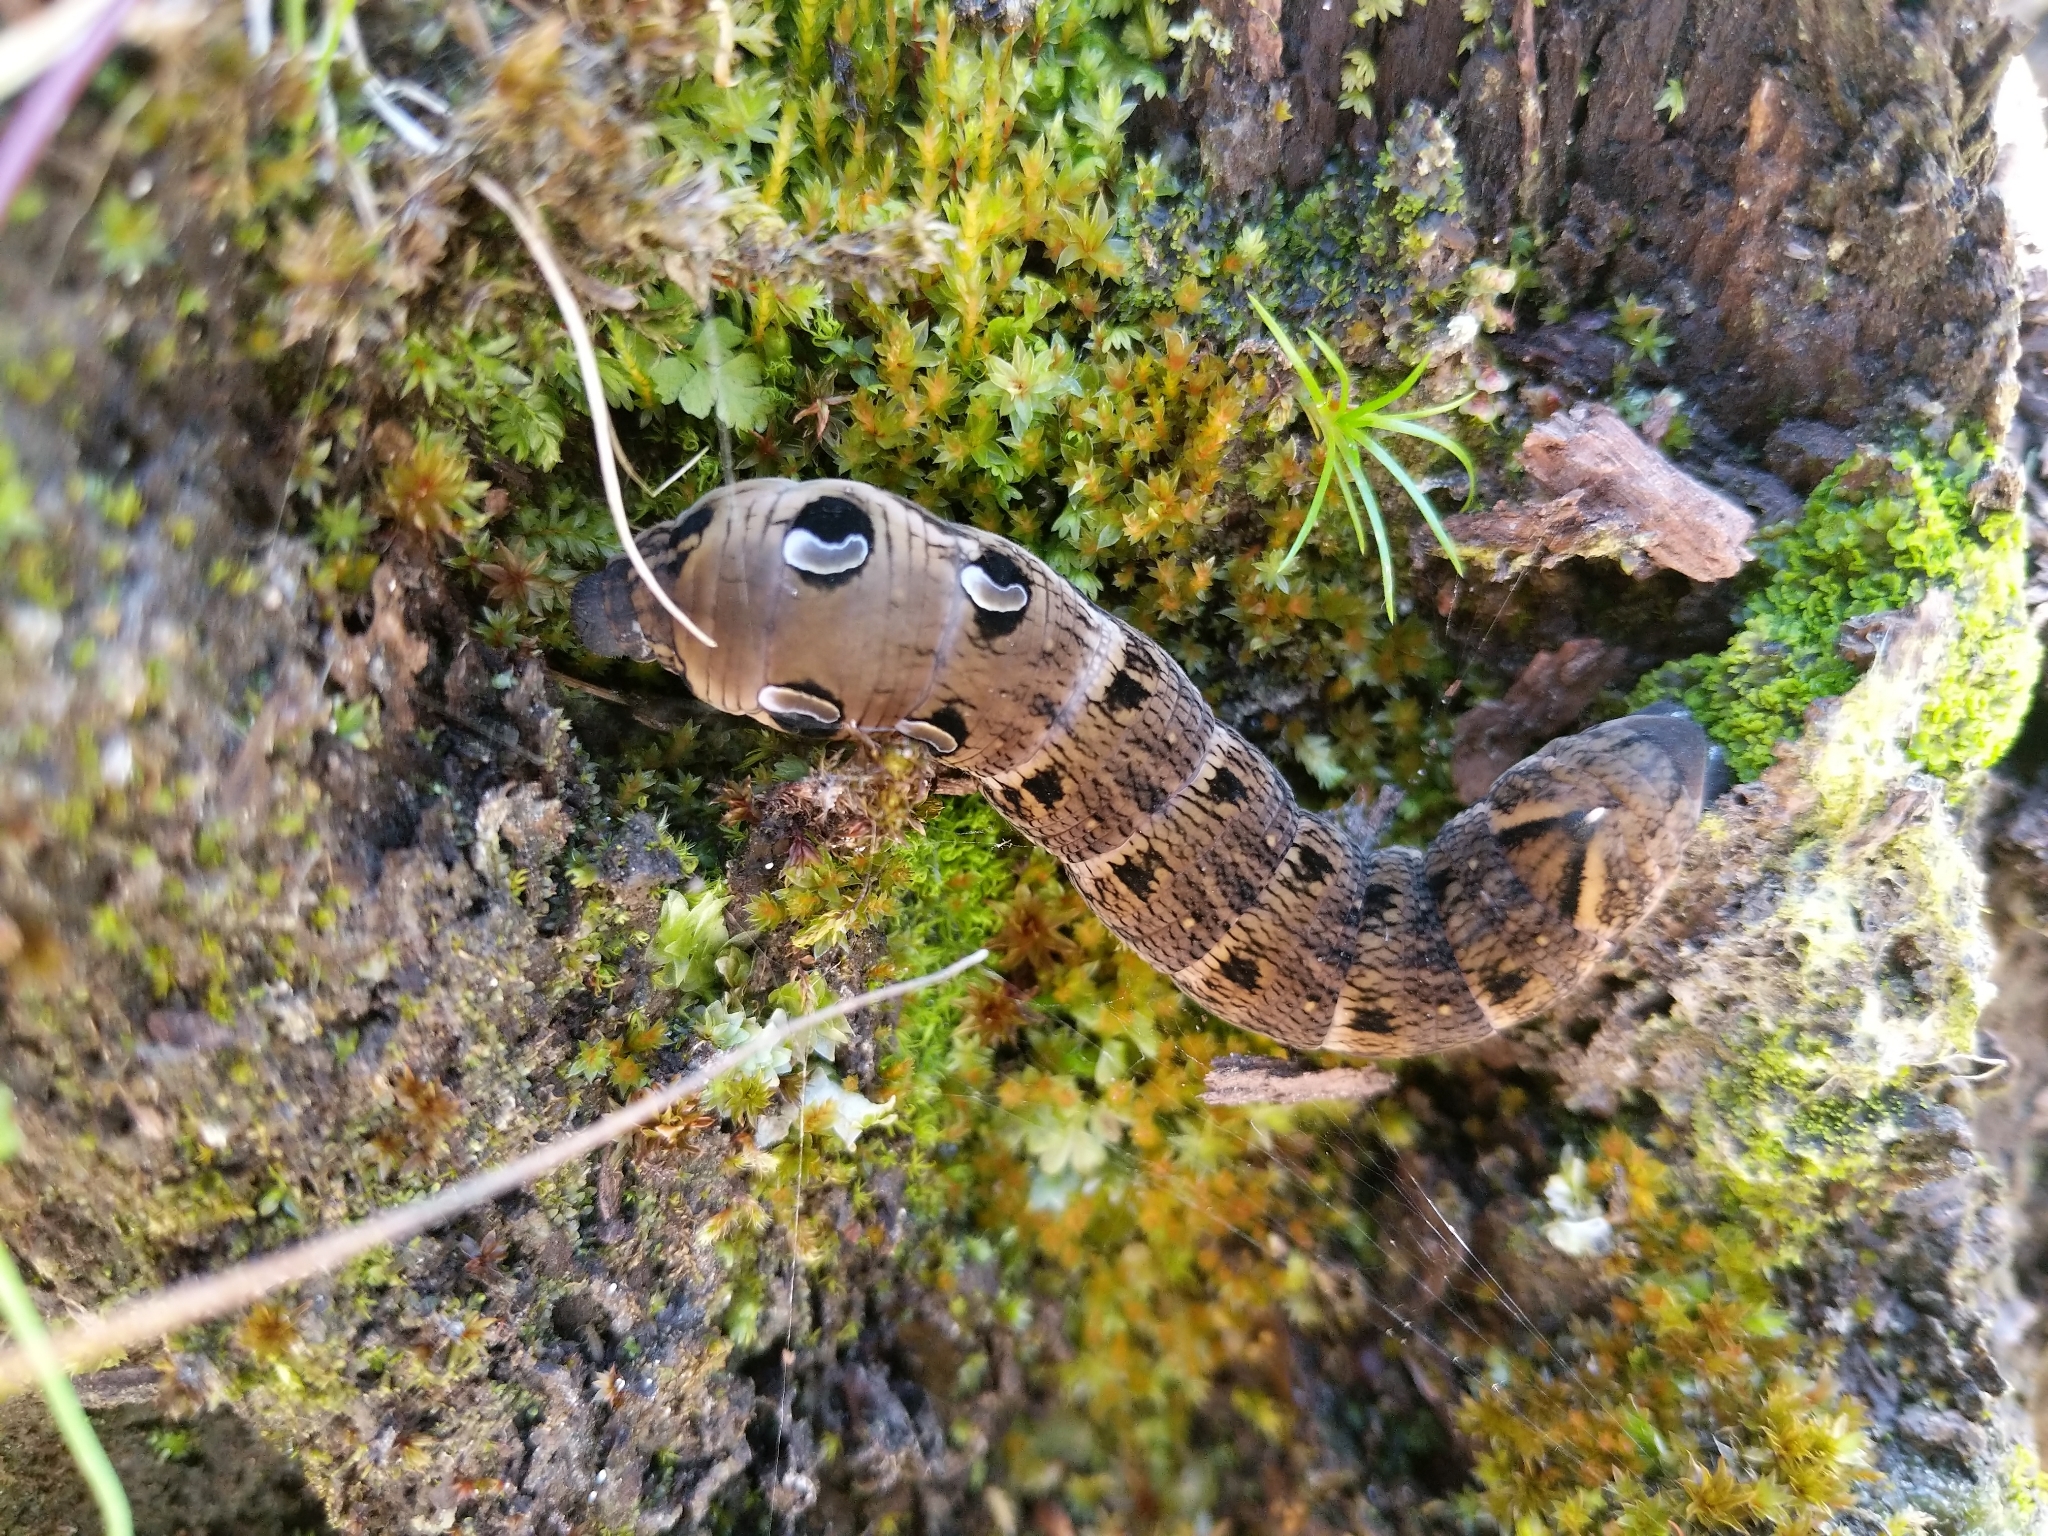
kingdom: Animalia
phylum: Arthropoda
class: Insecta
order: Lepidoptera
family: Sphingidae
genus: Deilephila
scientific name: Deilephila elpenor
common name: Elephant hawk-moth
